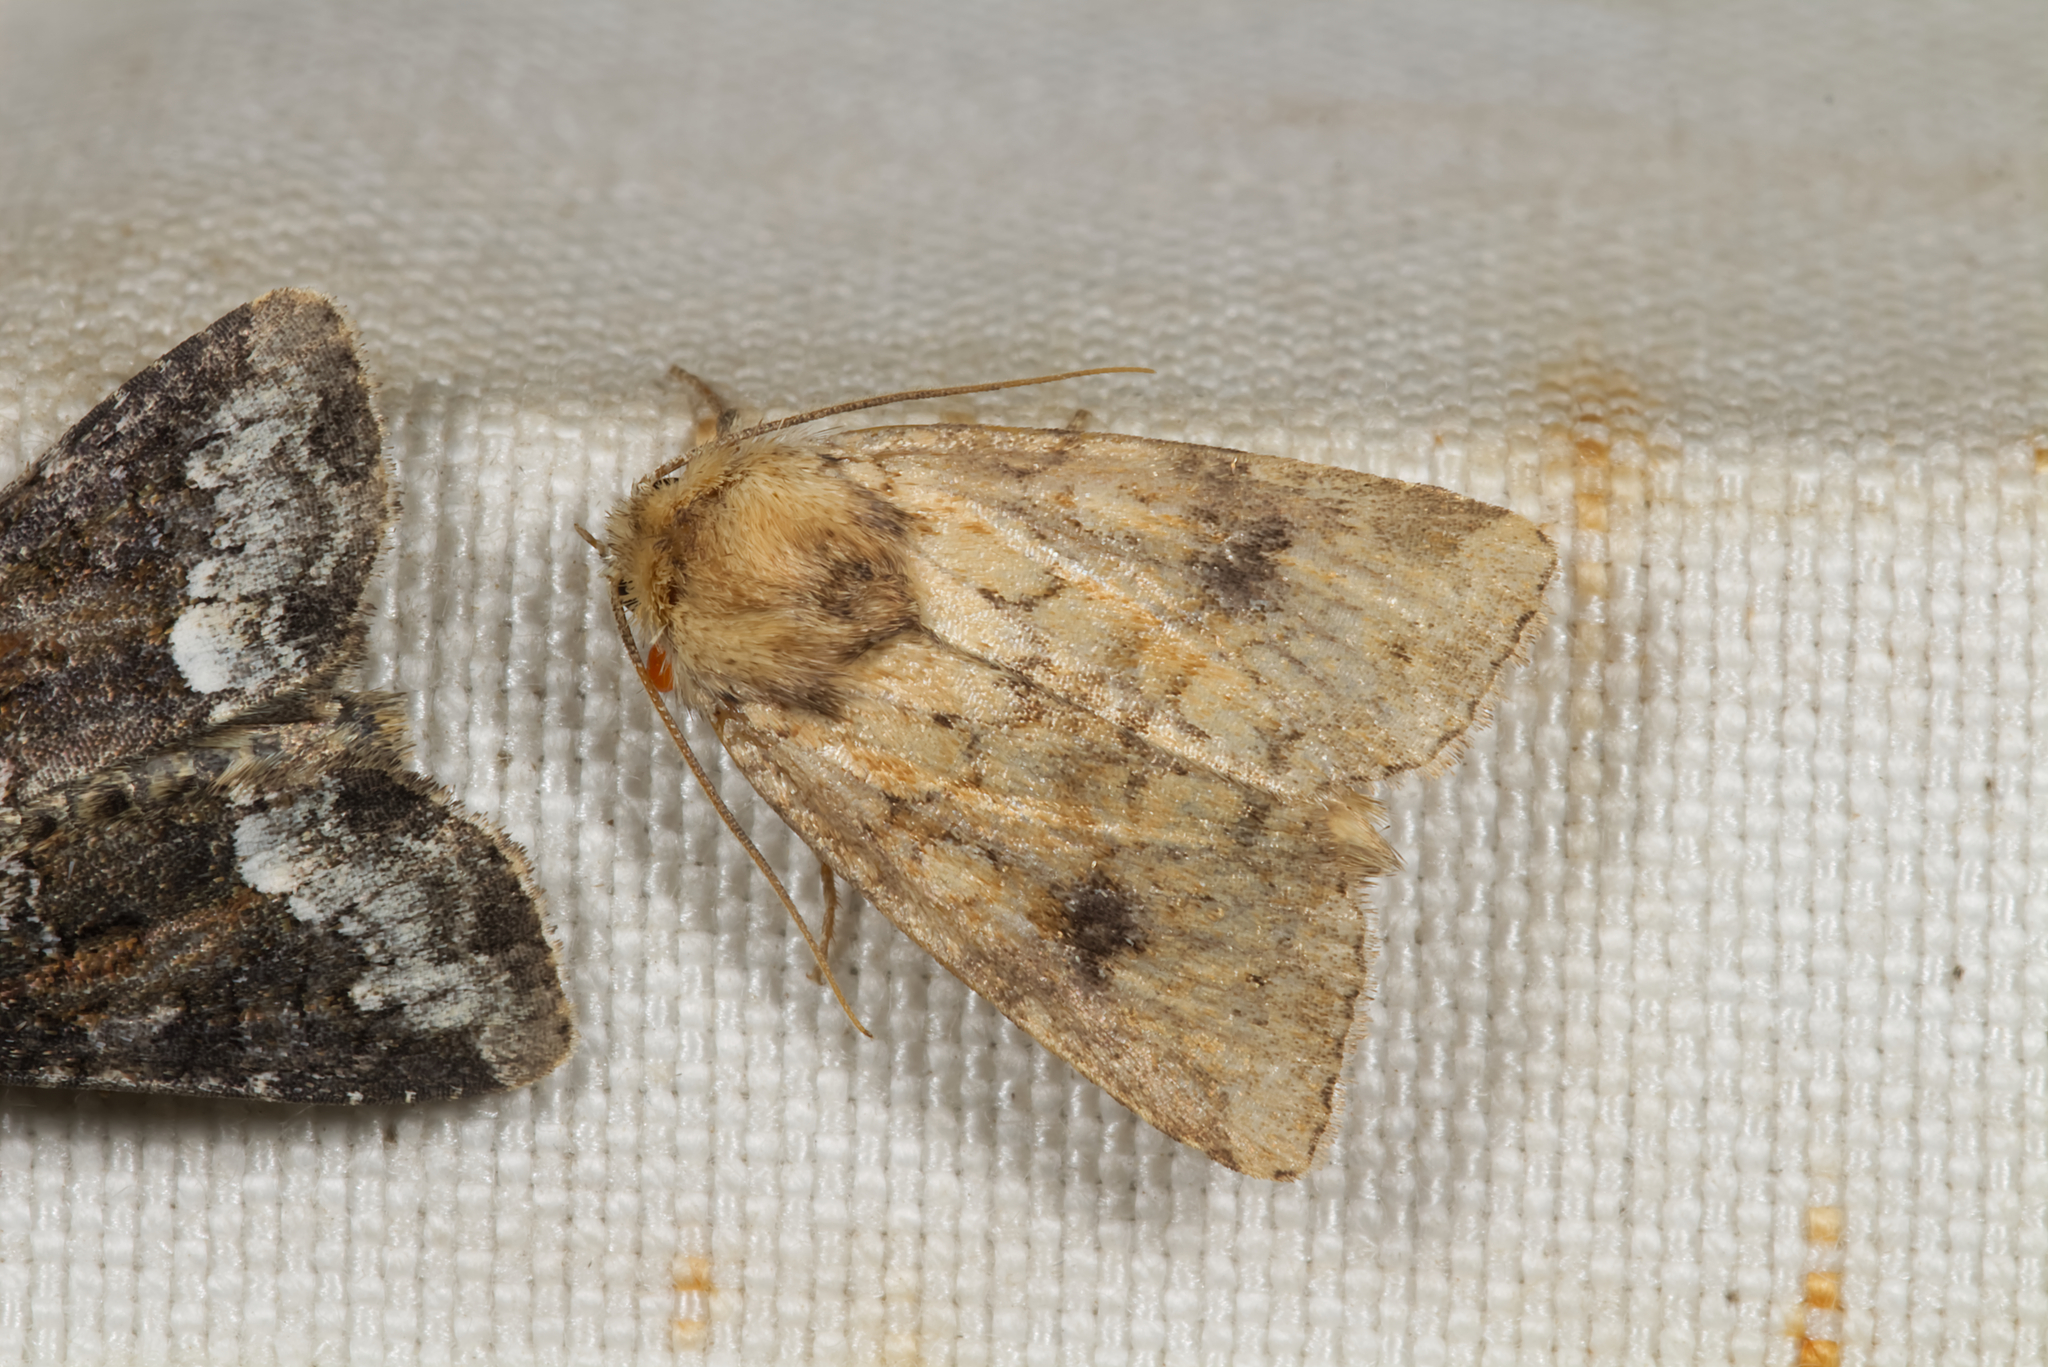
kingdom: Animalia
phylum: Arthropoda
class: Insecta
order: Lepidoptera
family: Noctuidae
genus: Atypha
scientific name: Atypha pulmonaris
